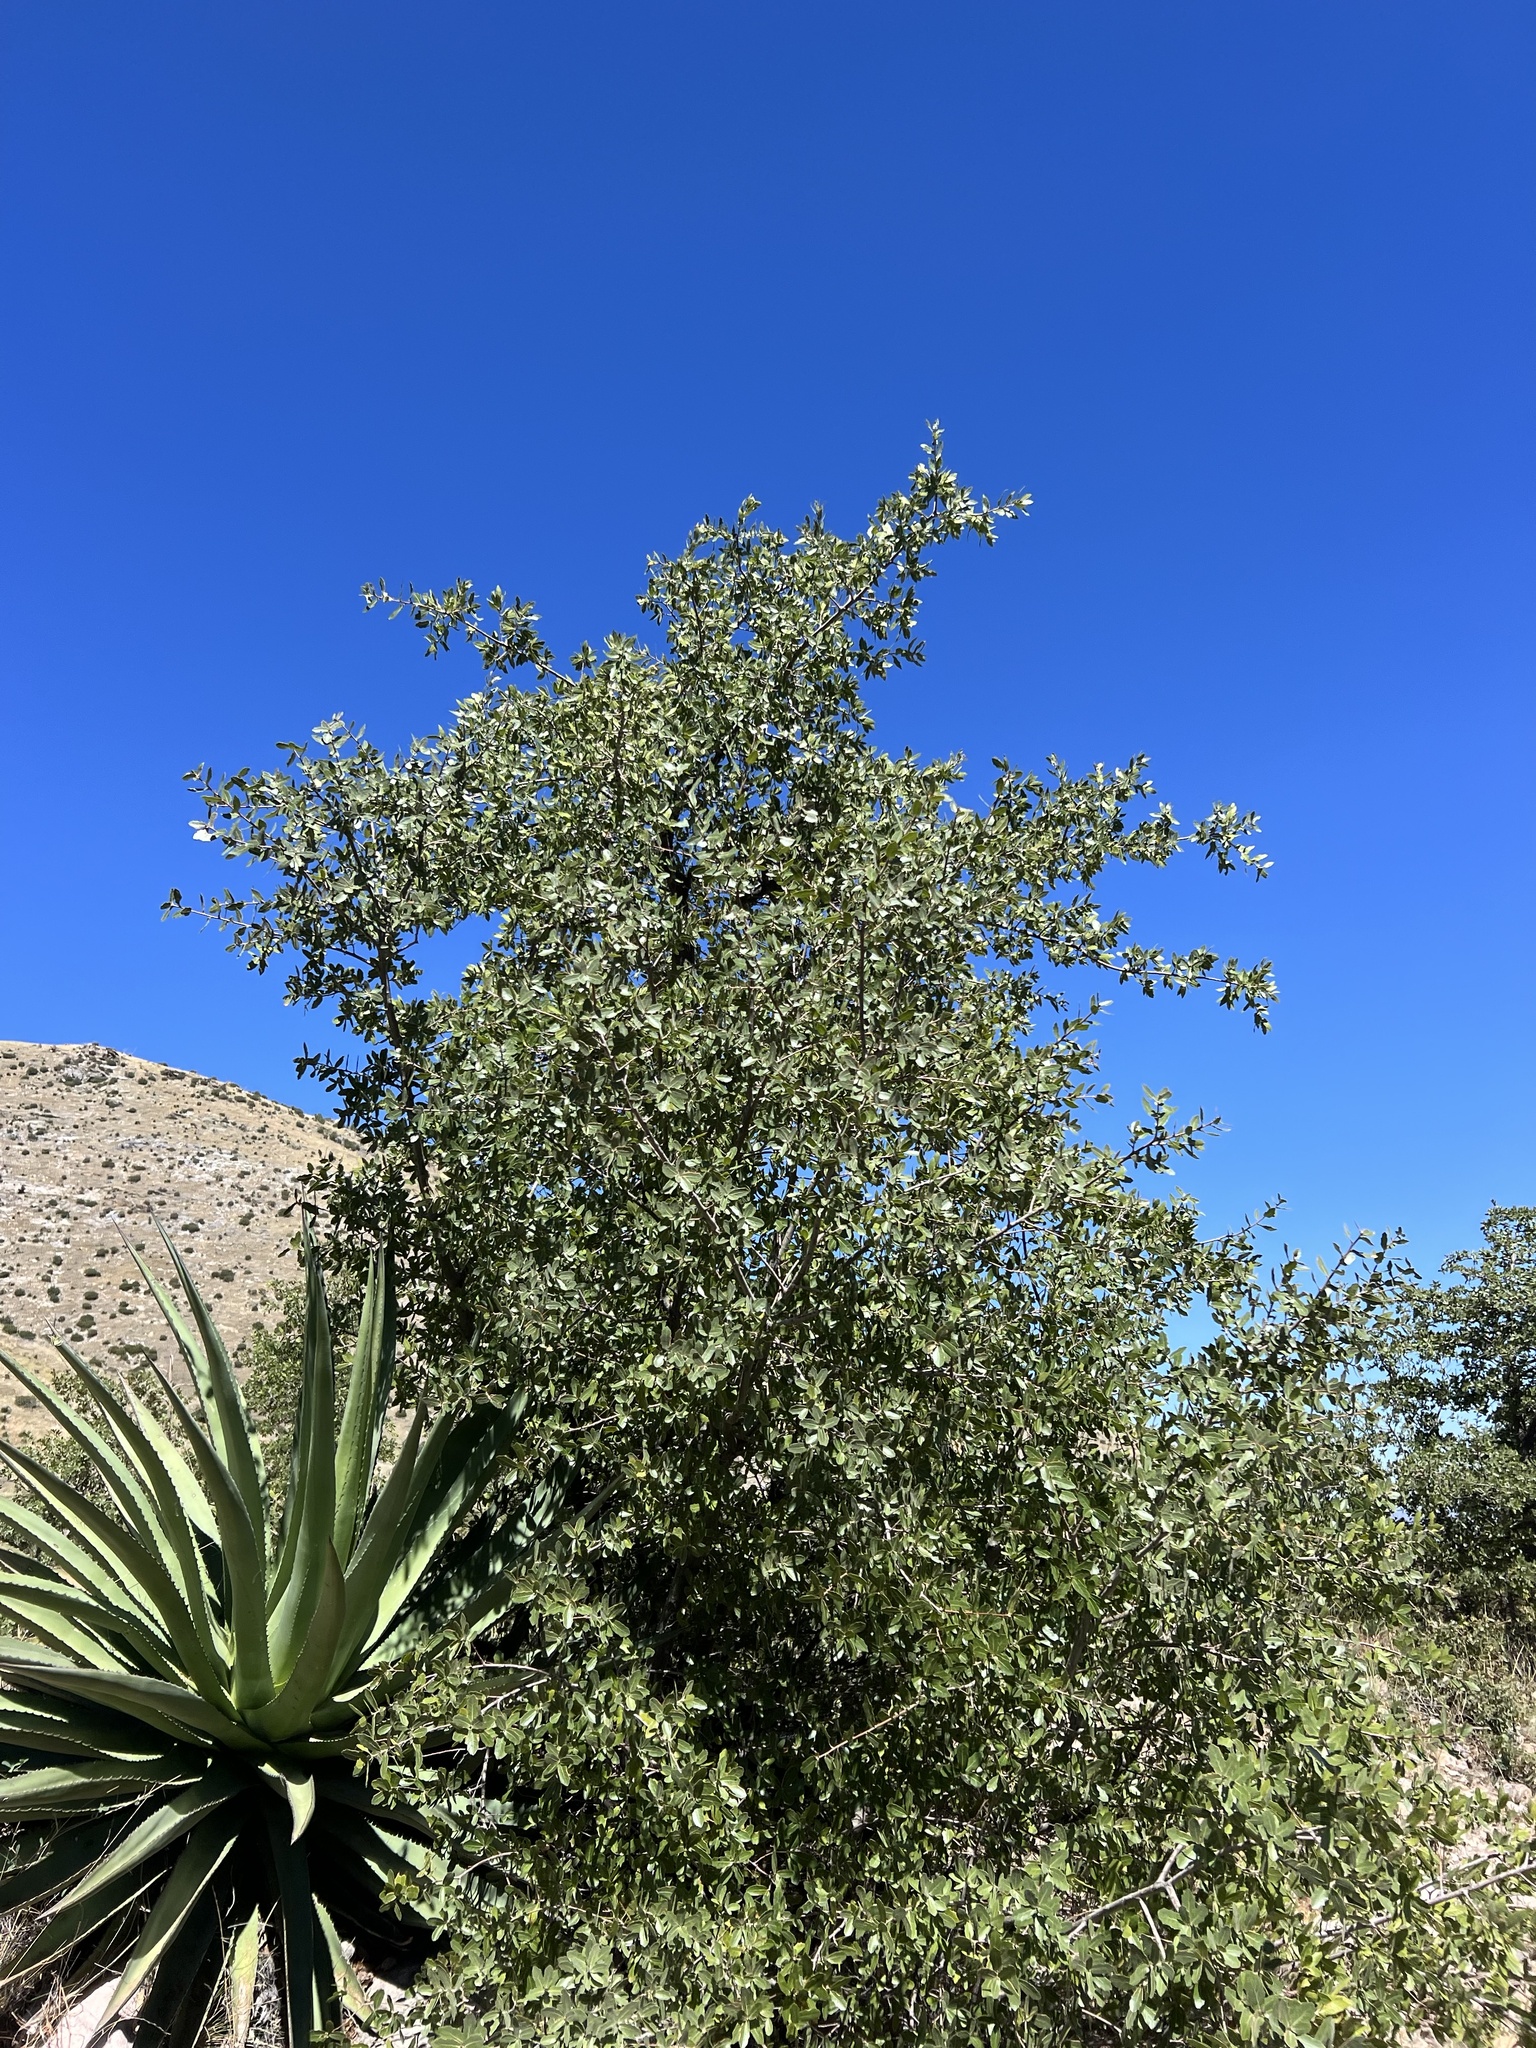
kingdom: Plantae
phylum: Tracheophyta
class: Magnoliopsida
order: Fagales
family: Fagaceae
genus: Quercus
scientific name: Quercus emoryi
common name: Emory oak
